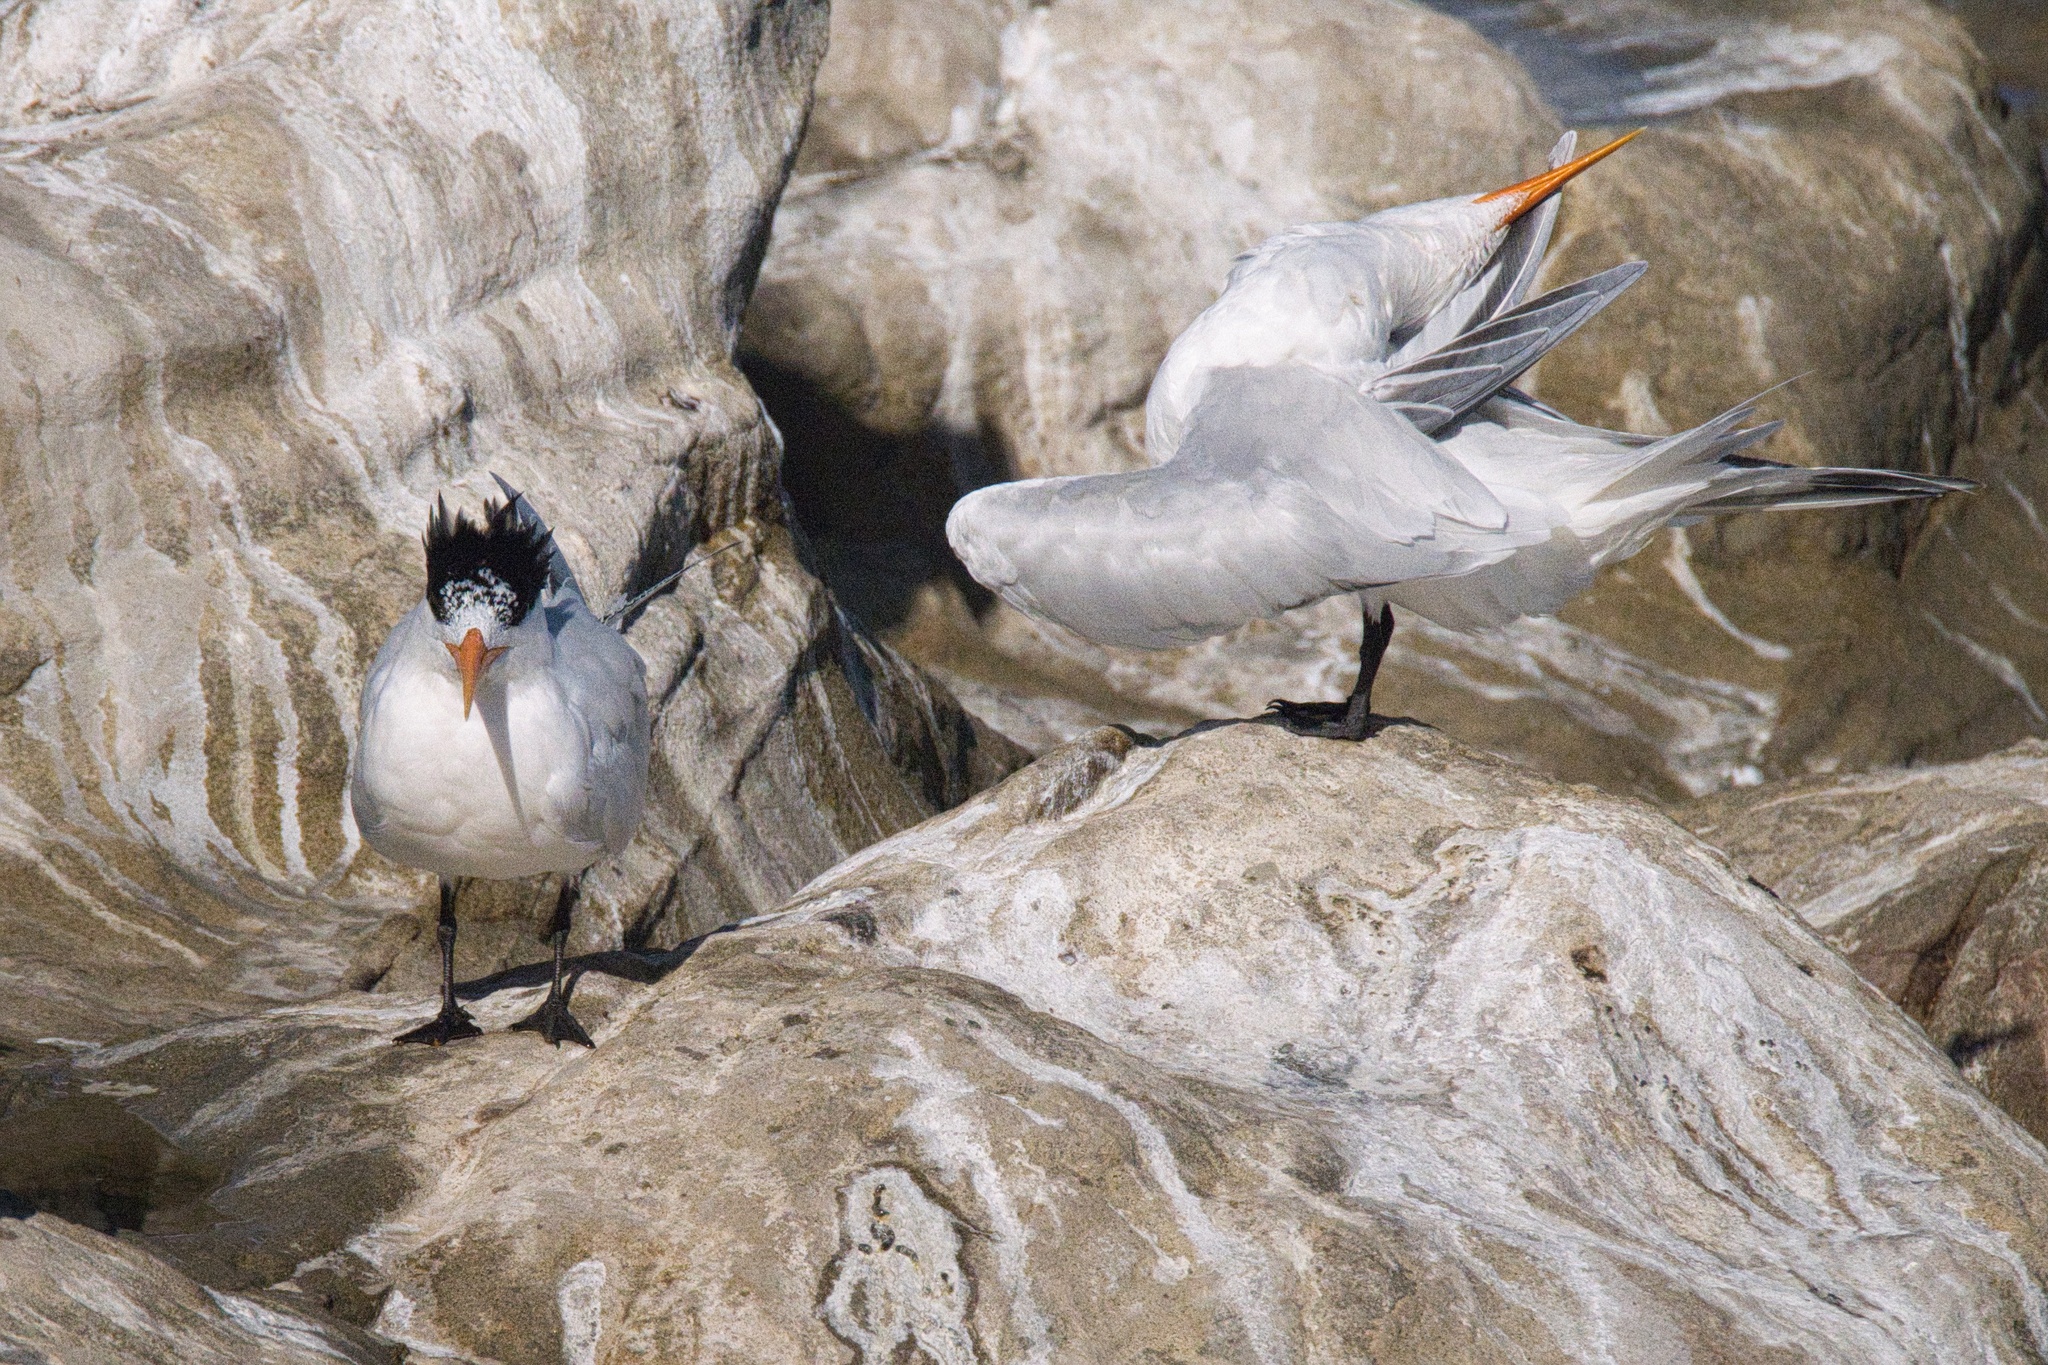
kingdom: Animalia
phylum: Chordata
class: Aves
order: Charadriiformes
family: Laridae
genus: Thalasseus
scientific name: Thalasseus elegans
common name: Elegant tern
